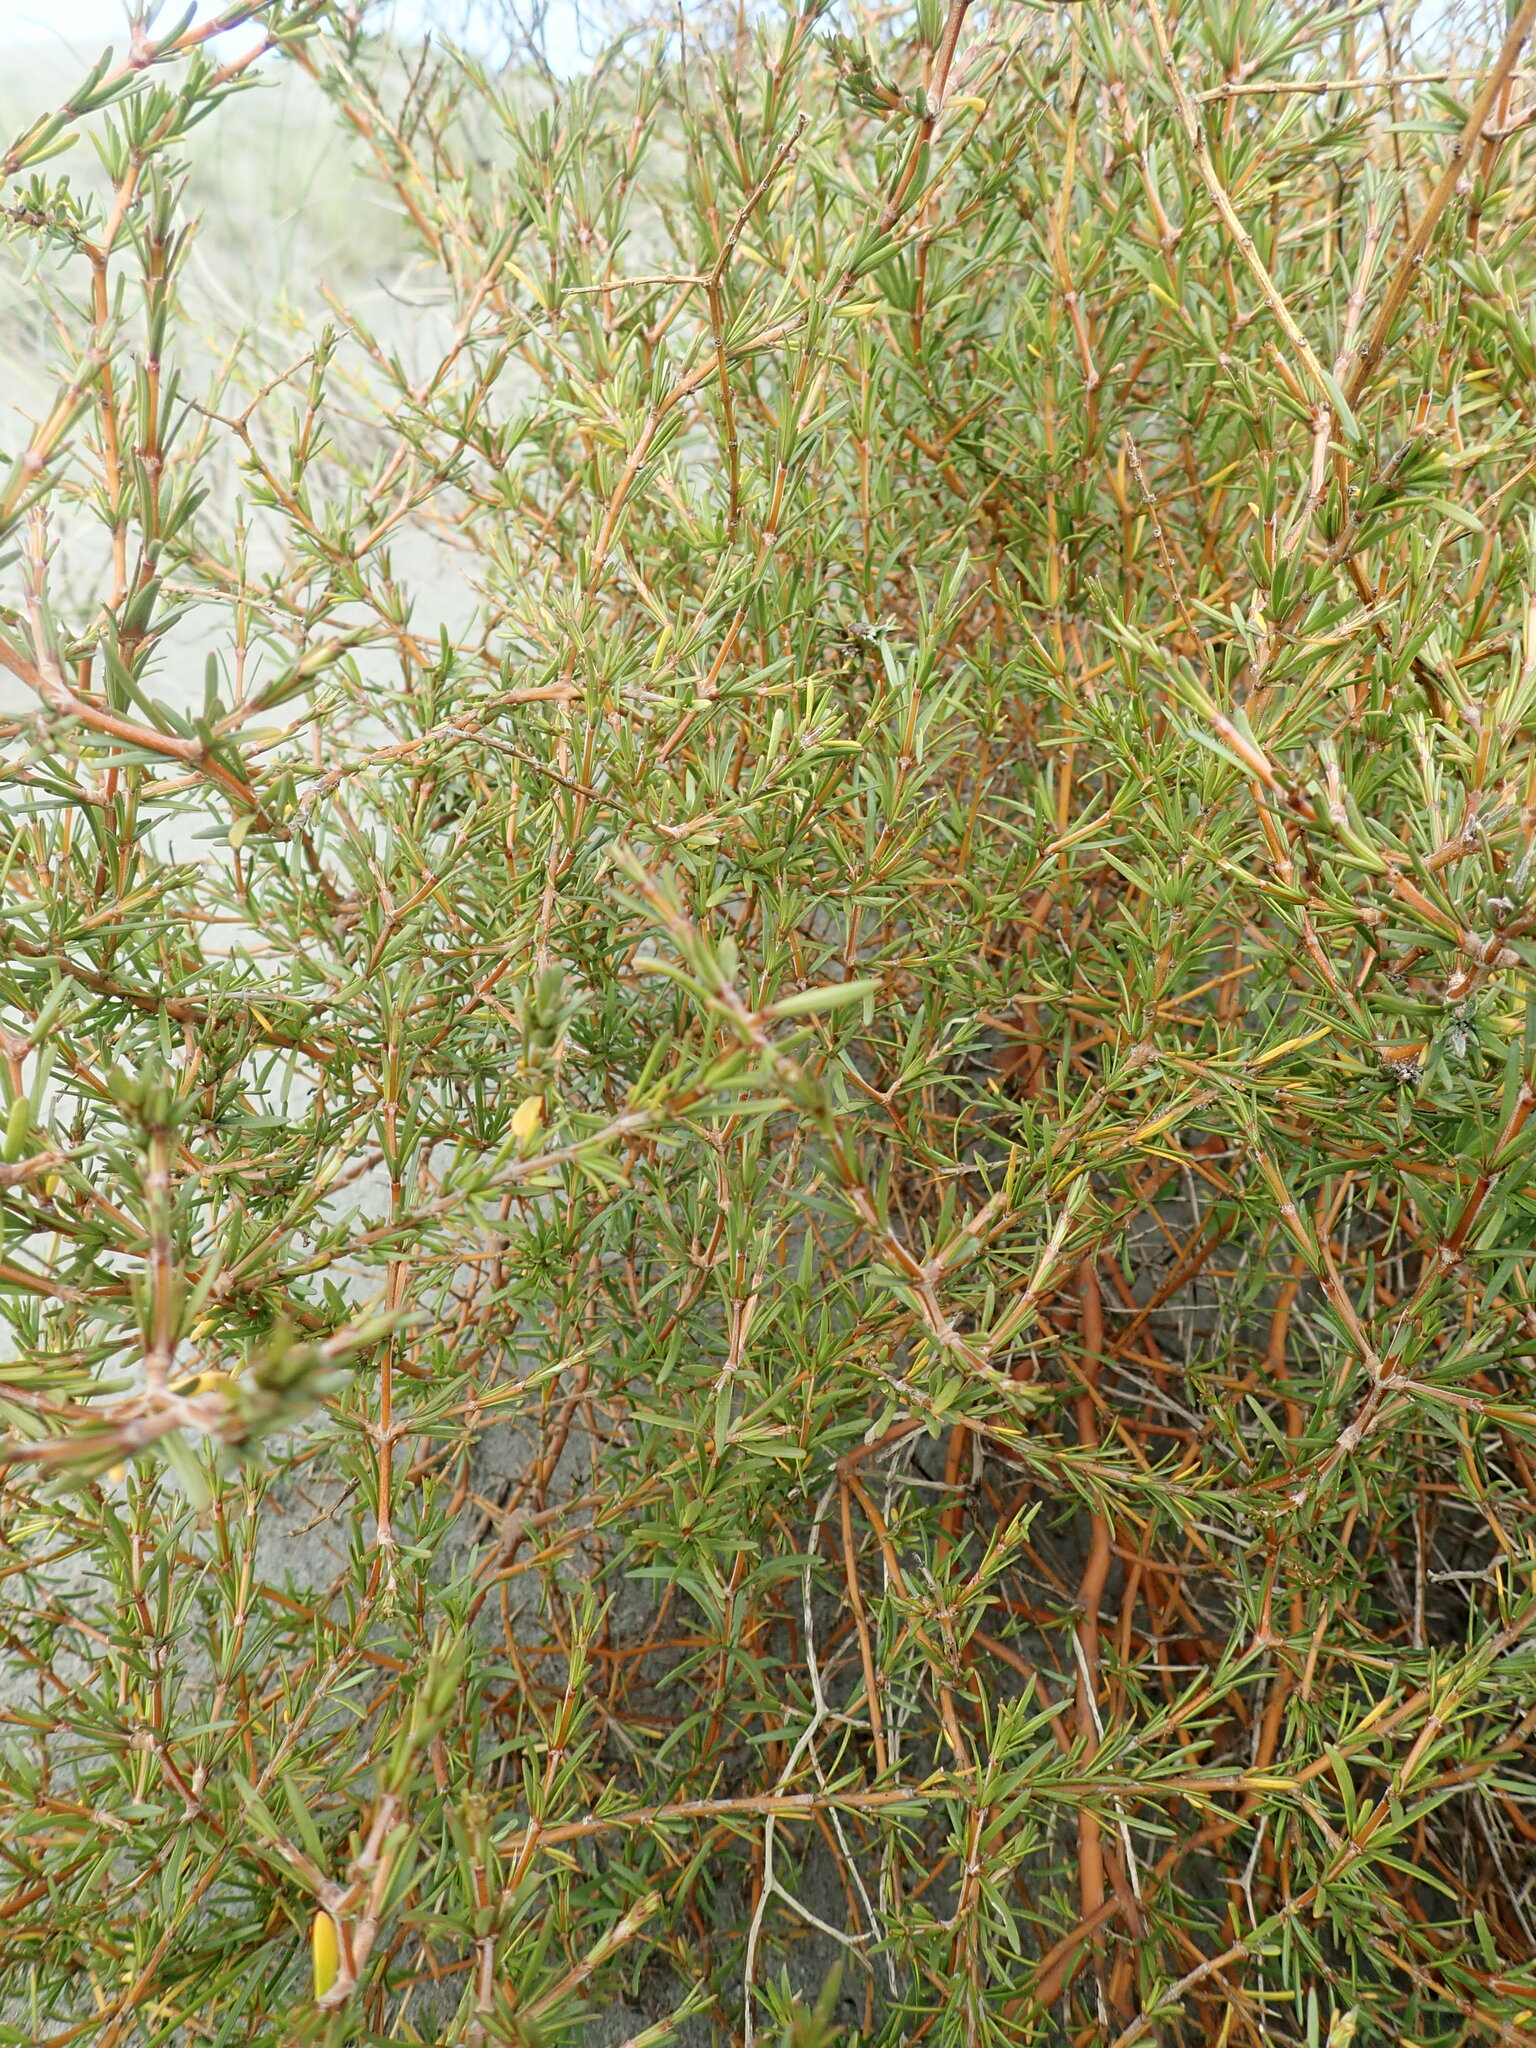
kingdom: Plantae
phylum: Tracheophyta
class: Magnoliopsida
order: Gentianales
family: Rubiaceae
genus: Coprosma
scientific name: Coprosma acerosa
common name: Sand coprosma
